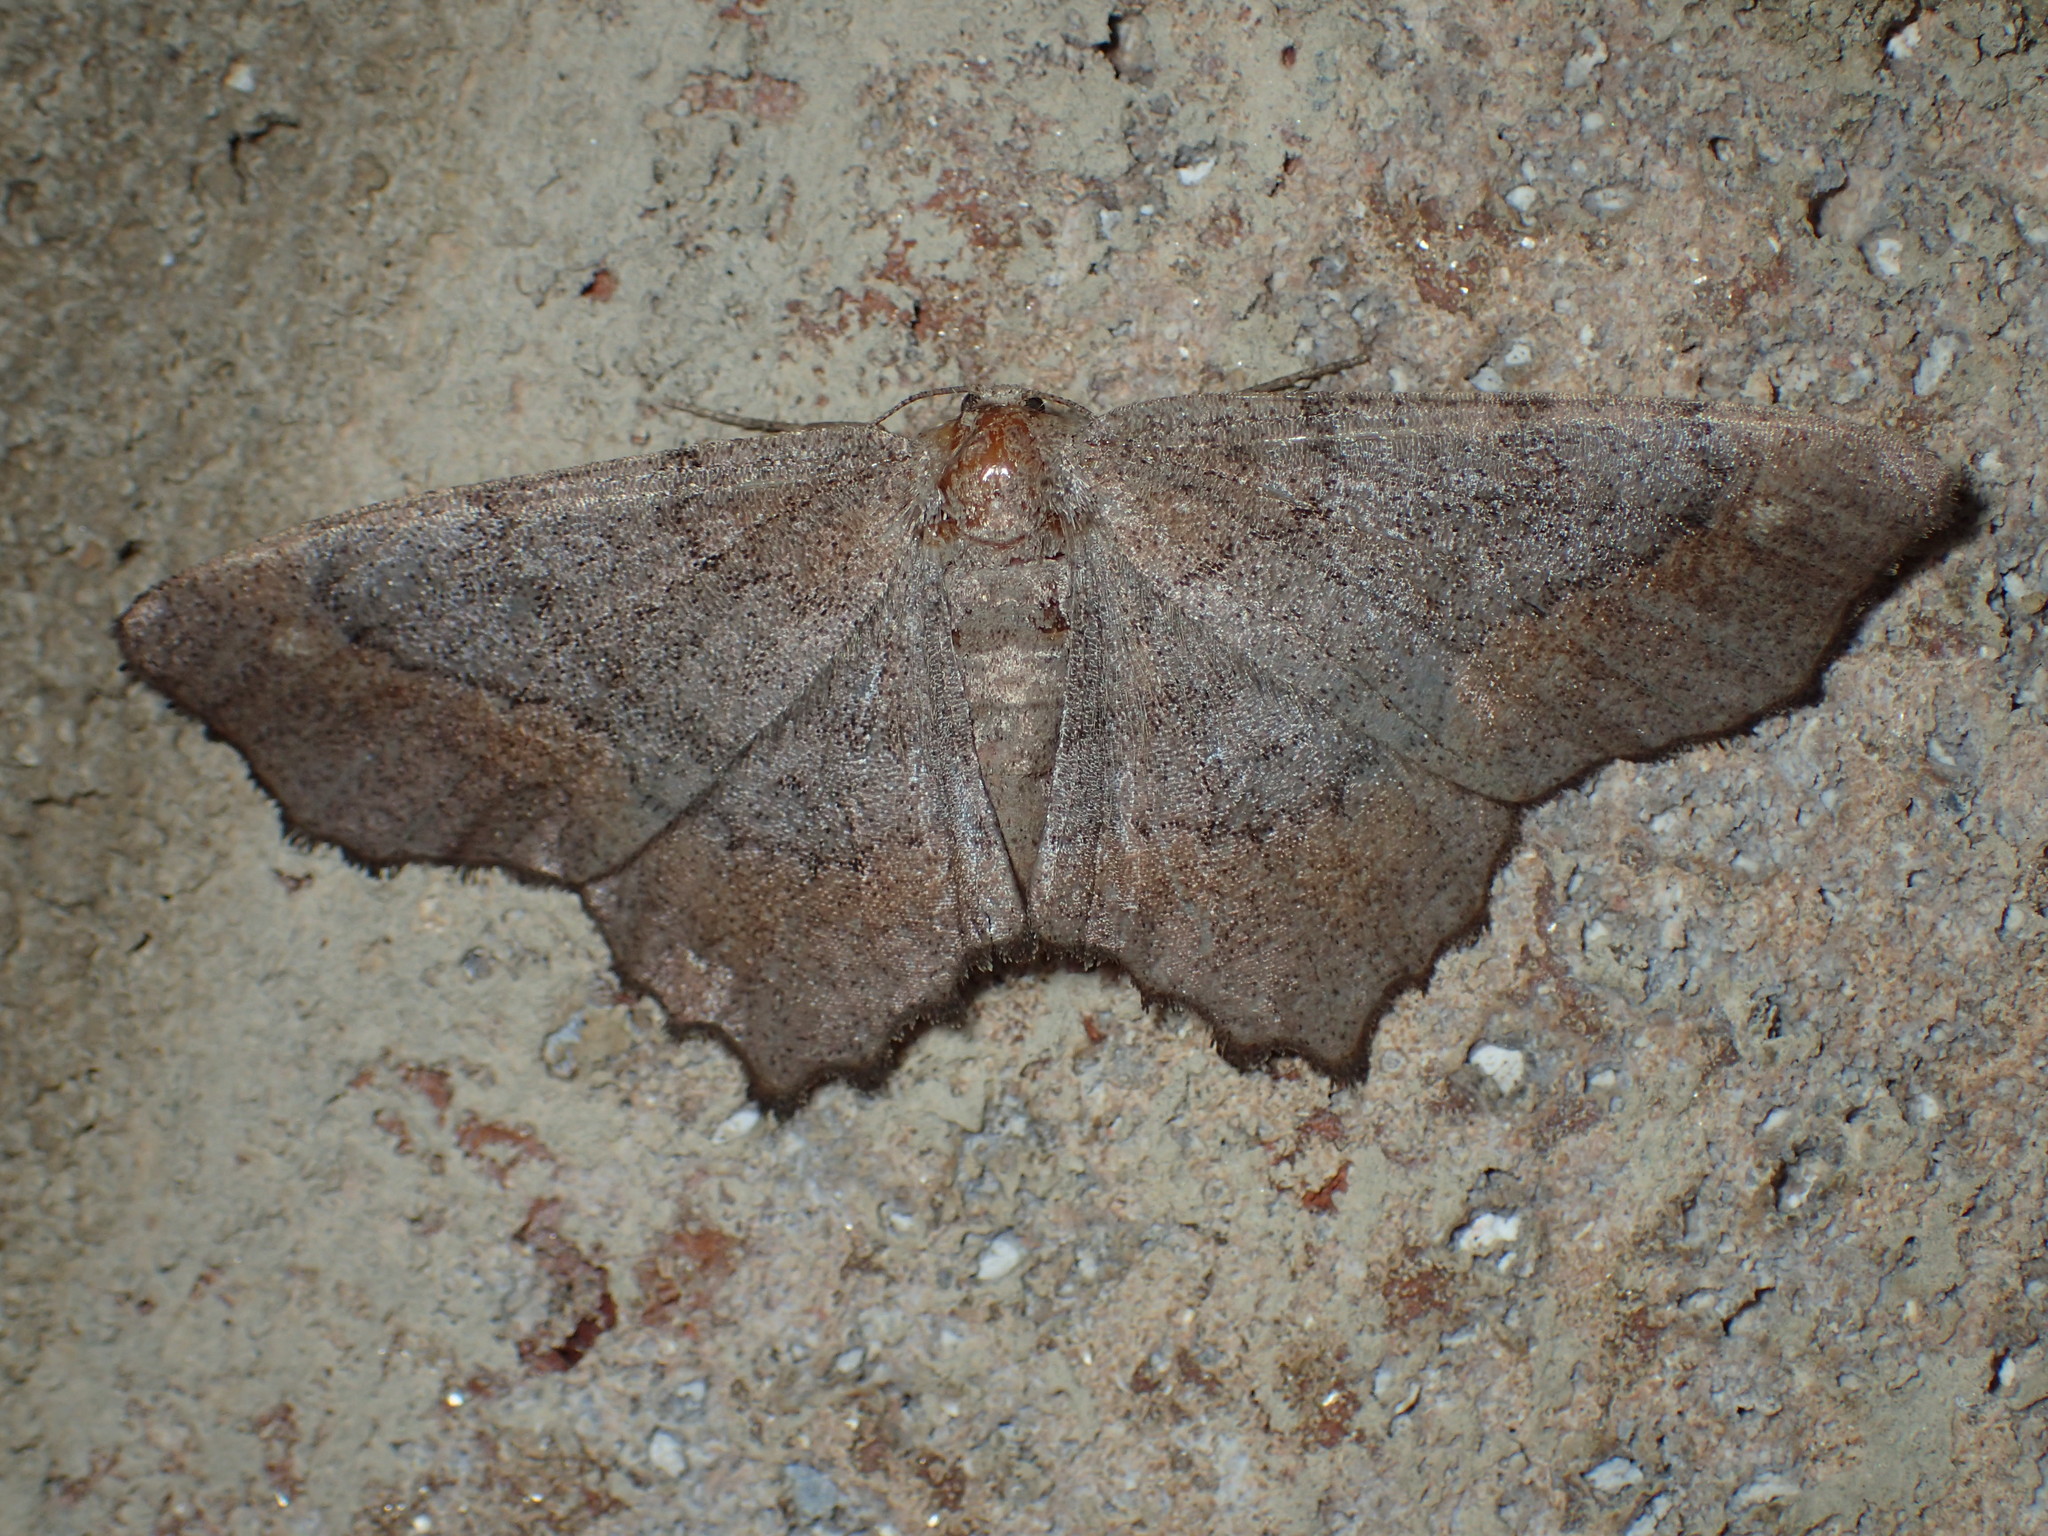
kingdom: Animalia
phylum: Arthropoda
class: Insecta
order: Lepidoptera
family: Geometridae
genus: Hypagyrtis
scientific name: Hypagyrtis
